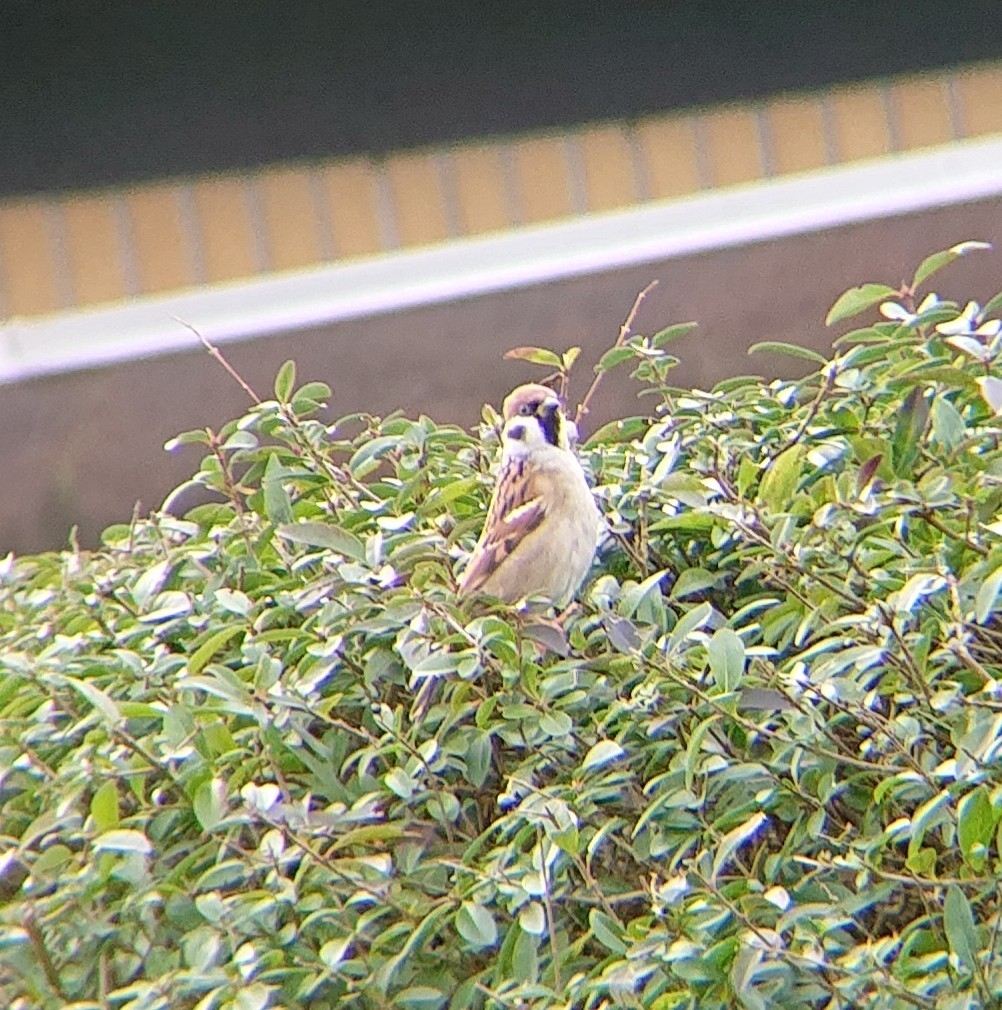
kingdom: Animalia
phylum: Chordata
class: Aves
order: Passeriformes
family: Passeridae
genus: Passer
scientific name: Passer montanus
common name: Eurasian tree sparrow
